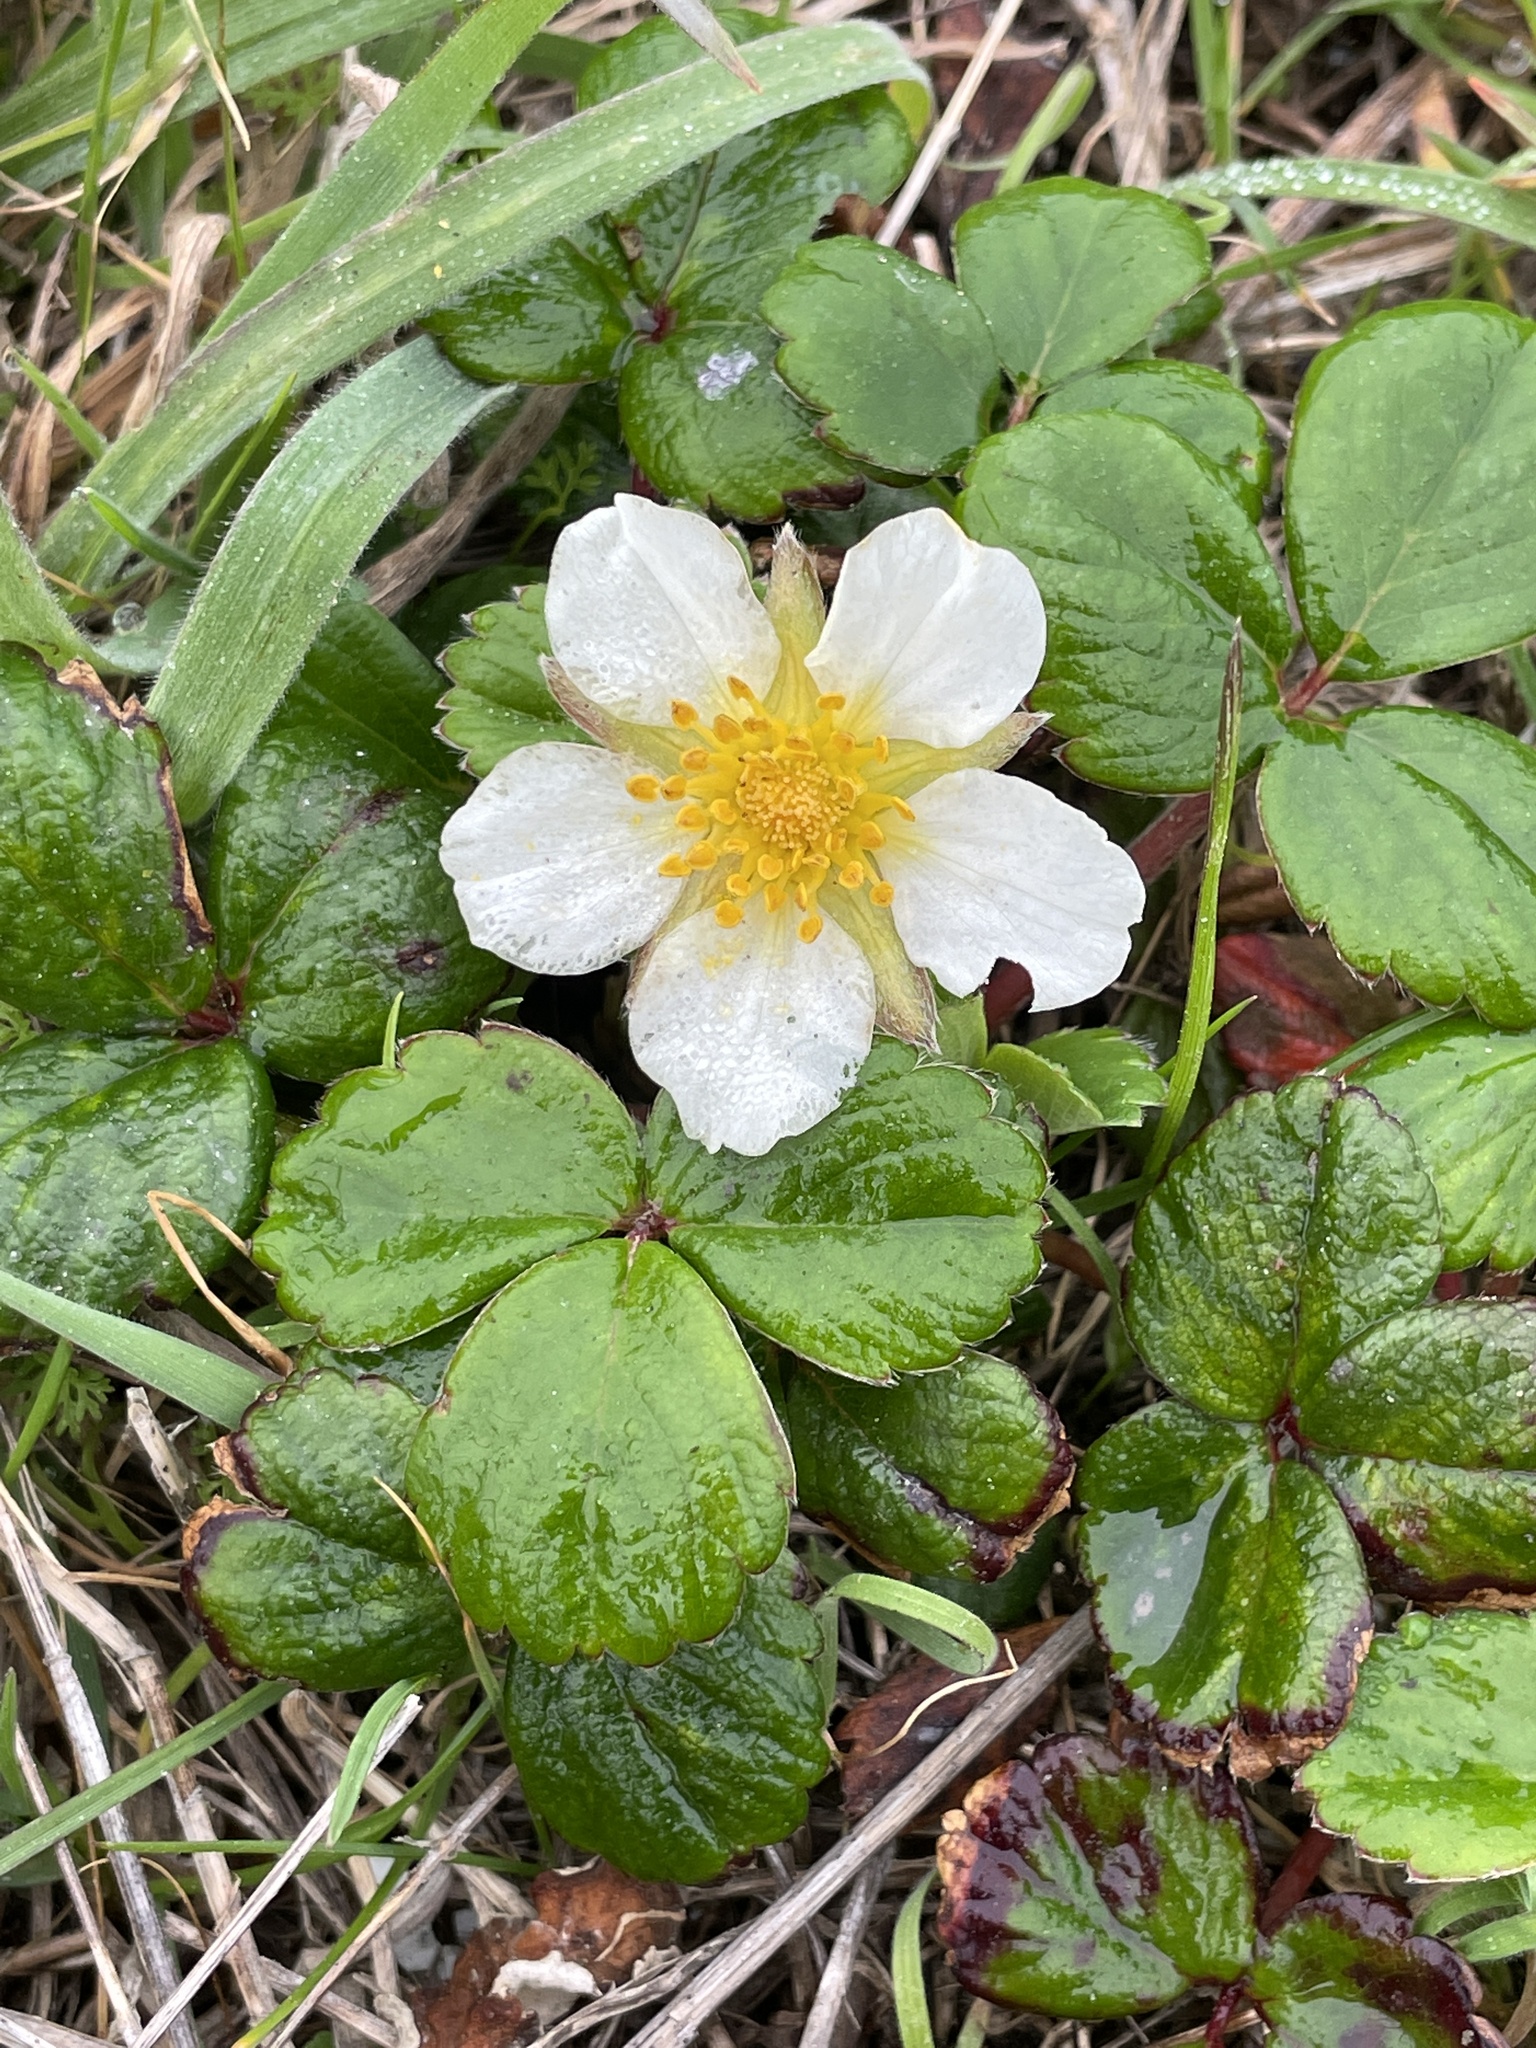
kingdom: Plantae
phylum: Tracheophyta
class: Magnoliopsida
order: Rosales
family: Rosaceae
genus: Fragaria
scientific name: Fragaria chiloensis
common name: Beach strawberry
